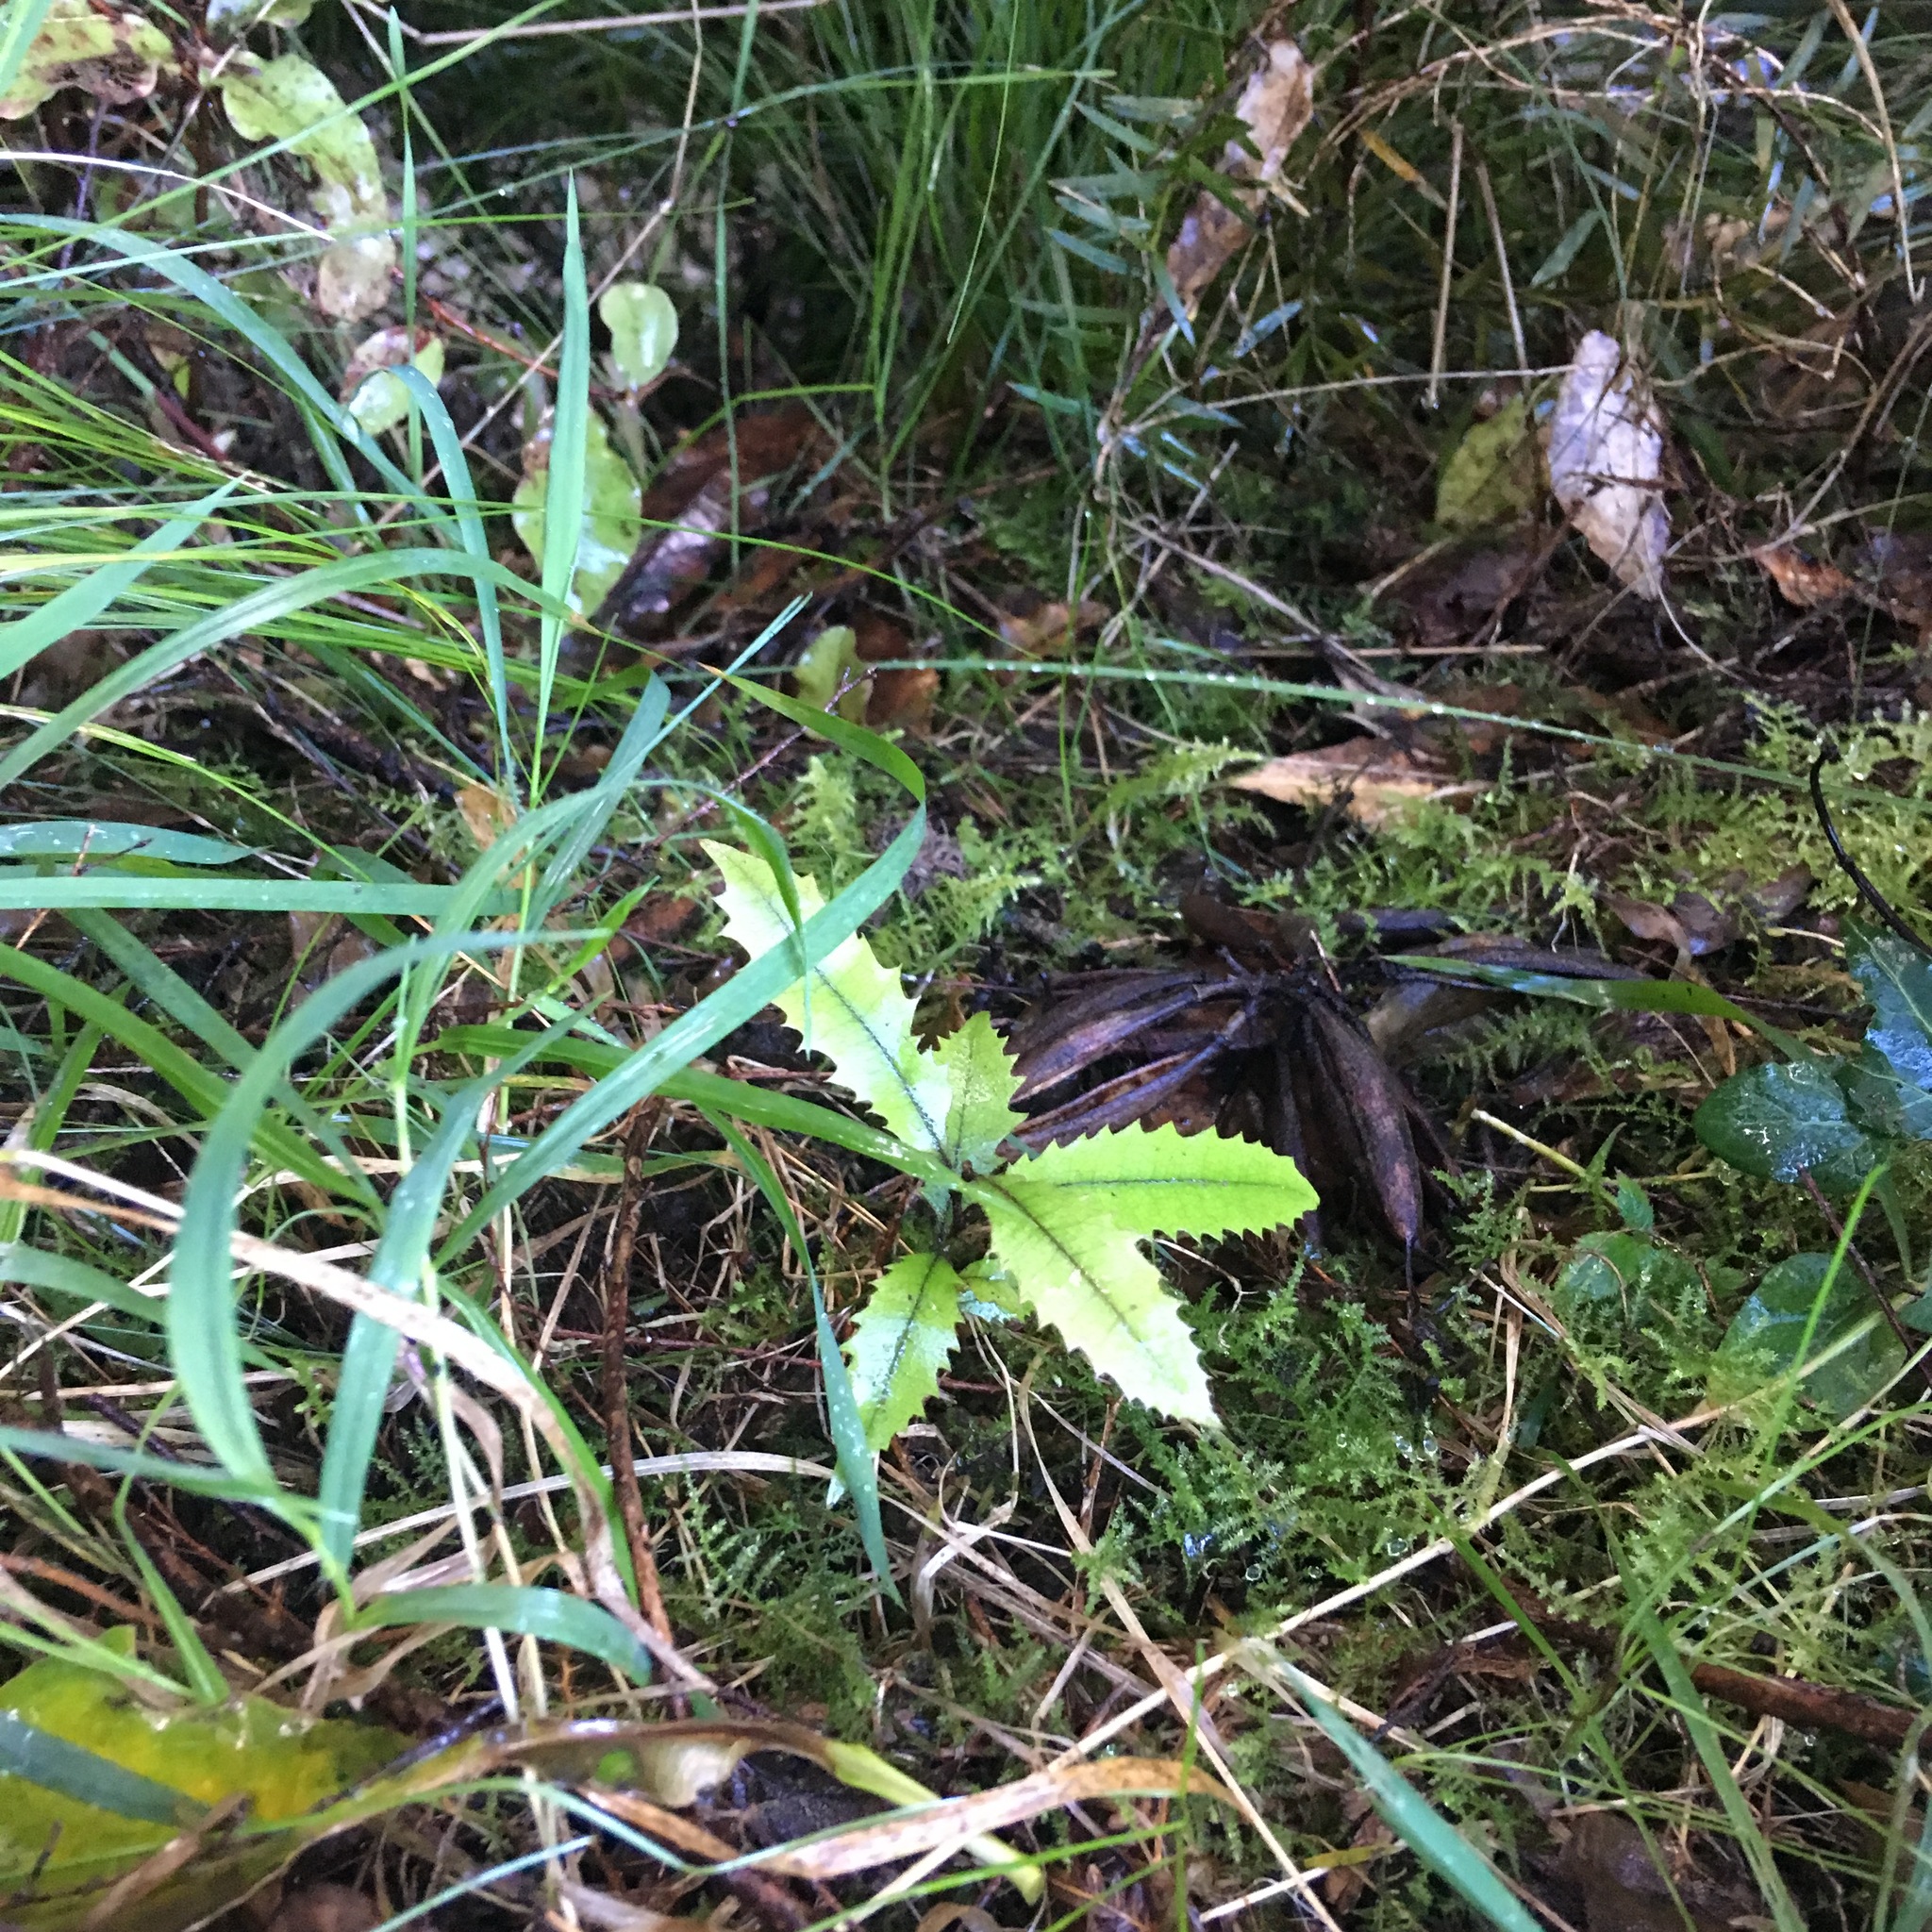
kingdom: Plantae
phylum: Tracheophyta
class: Magnoliopsida
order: Proteales
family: Proteaceae
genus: Knightia
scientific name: Knightia excelsa
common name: New zealand-honeysuckle
